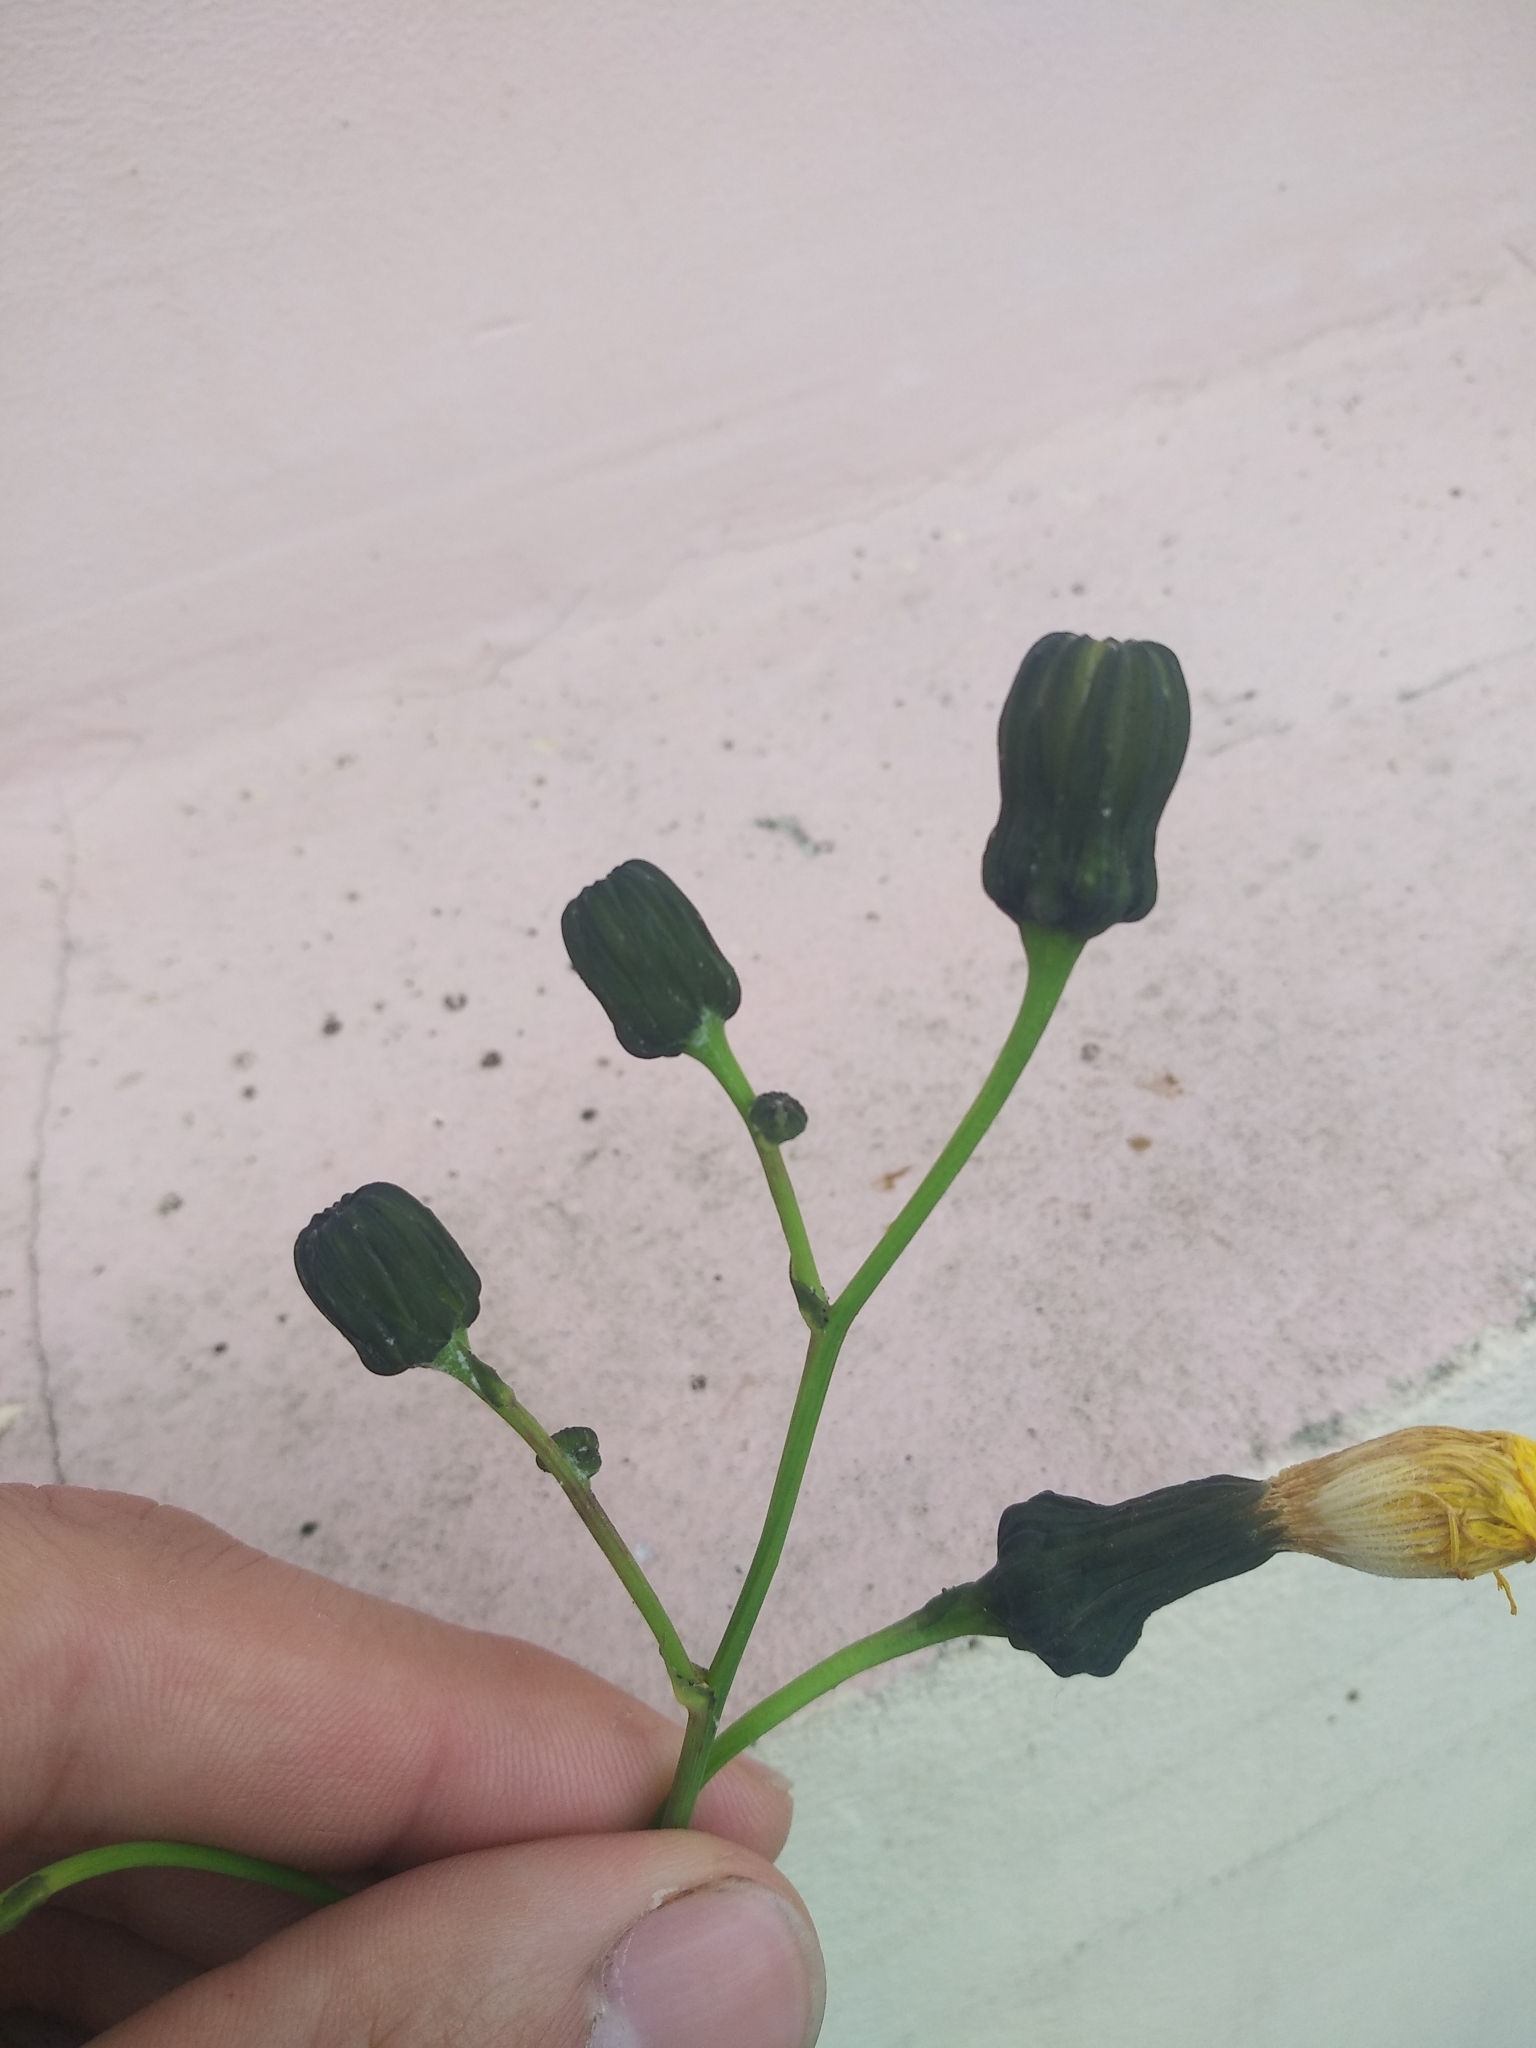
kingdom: Plantae
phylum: Tracheophyta
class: Magnoliopsida
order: Asterales
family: Asteraceae
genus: Sonchus
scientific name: Sonchus arvensis
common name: Perennial sow-thistle
